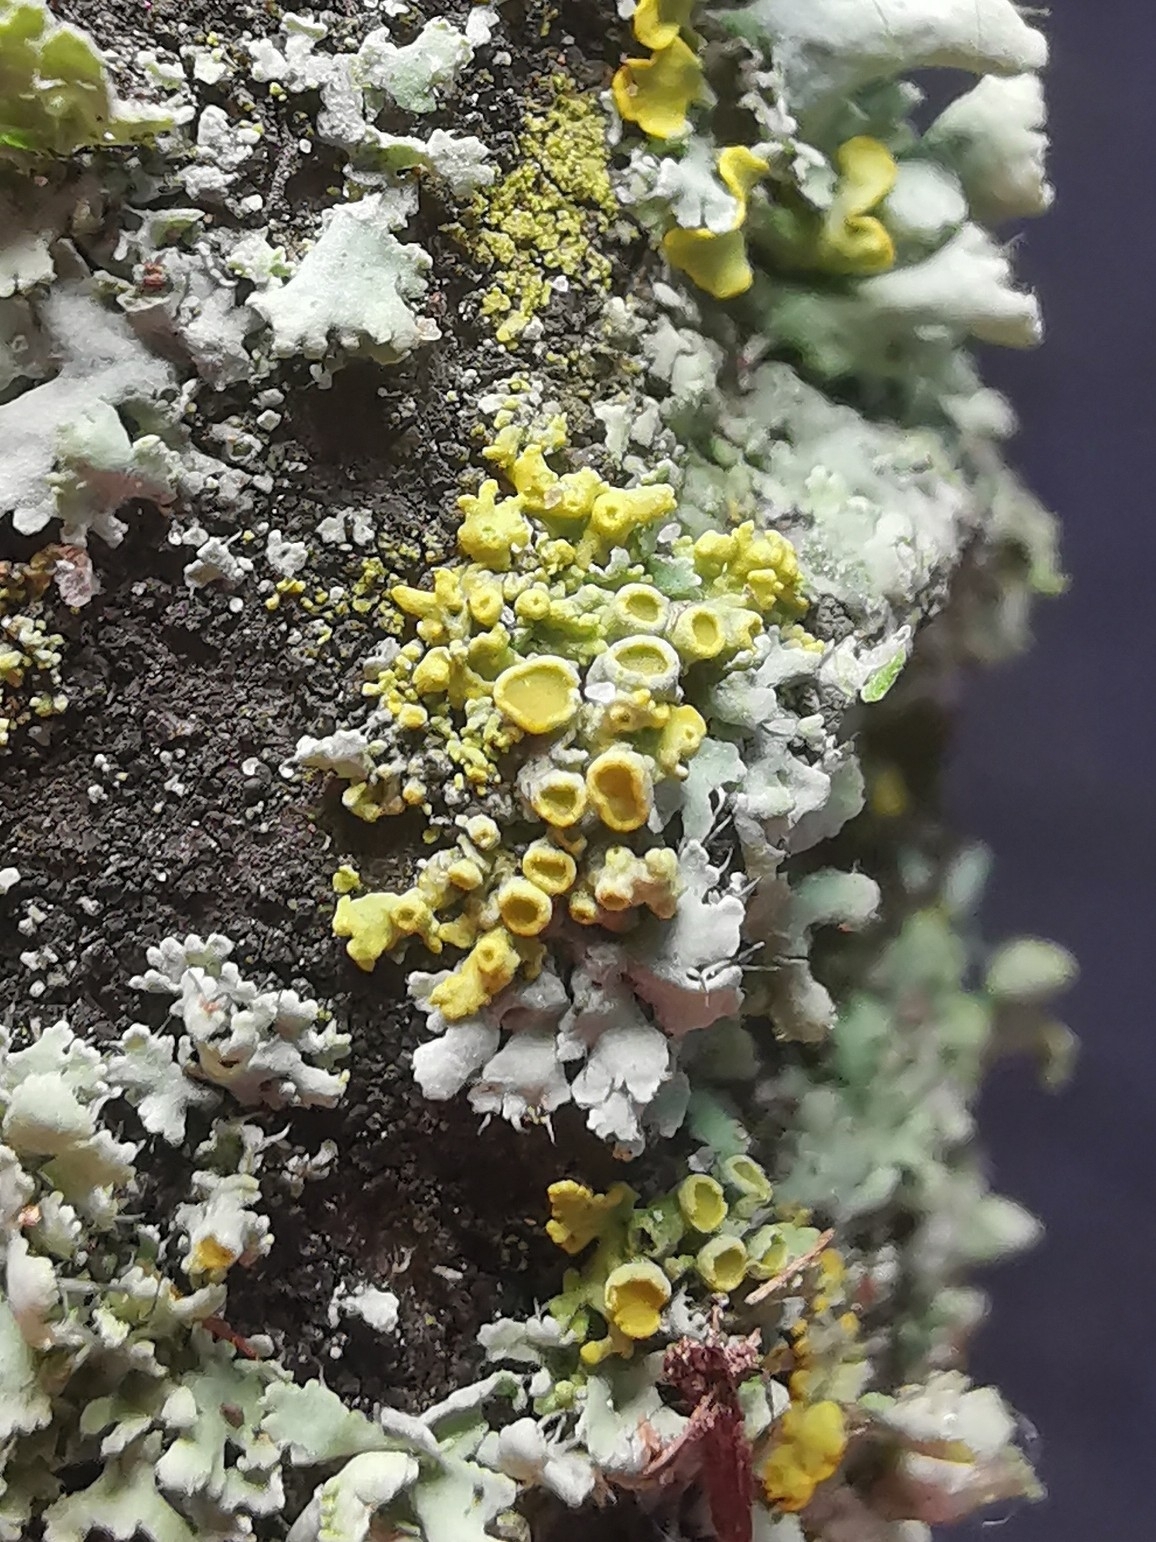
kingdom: Fungi
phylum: Ascomycota
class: Lecanoromycetes
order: Teloschistales
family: Teloschistaceae
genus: Polycauliona
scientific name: Polycauliona polycarpa
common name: Pin-cushion sunburst lichen
